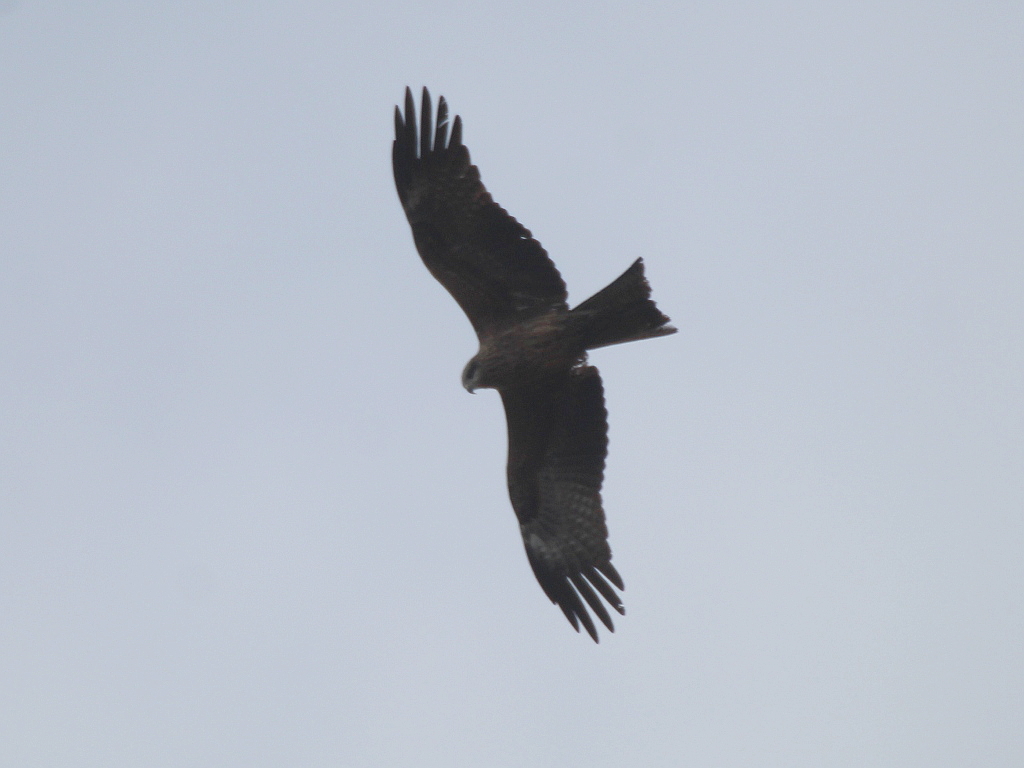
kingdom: Animalia
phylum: Chordata
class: Aves
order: Accipitriformes
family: Accipitridae
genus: Milvus
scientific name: Milvus migrans
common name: Black kite
